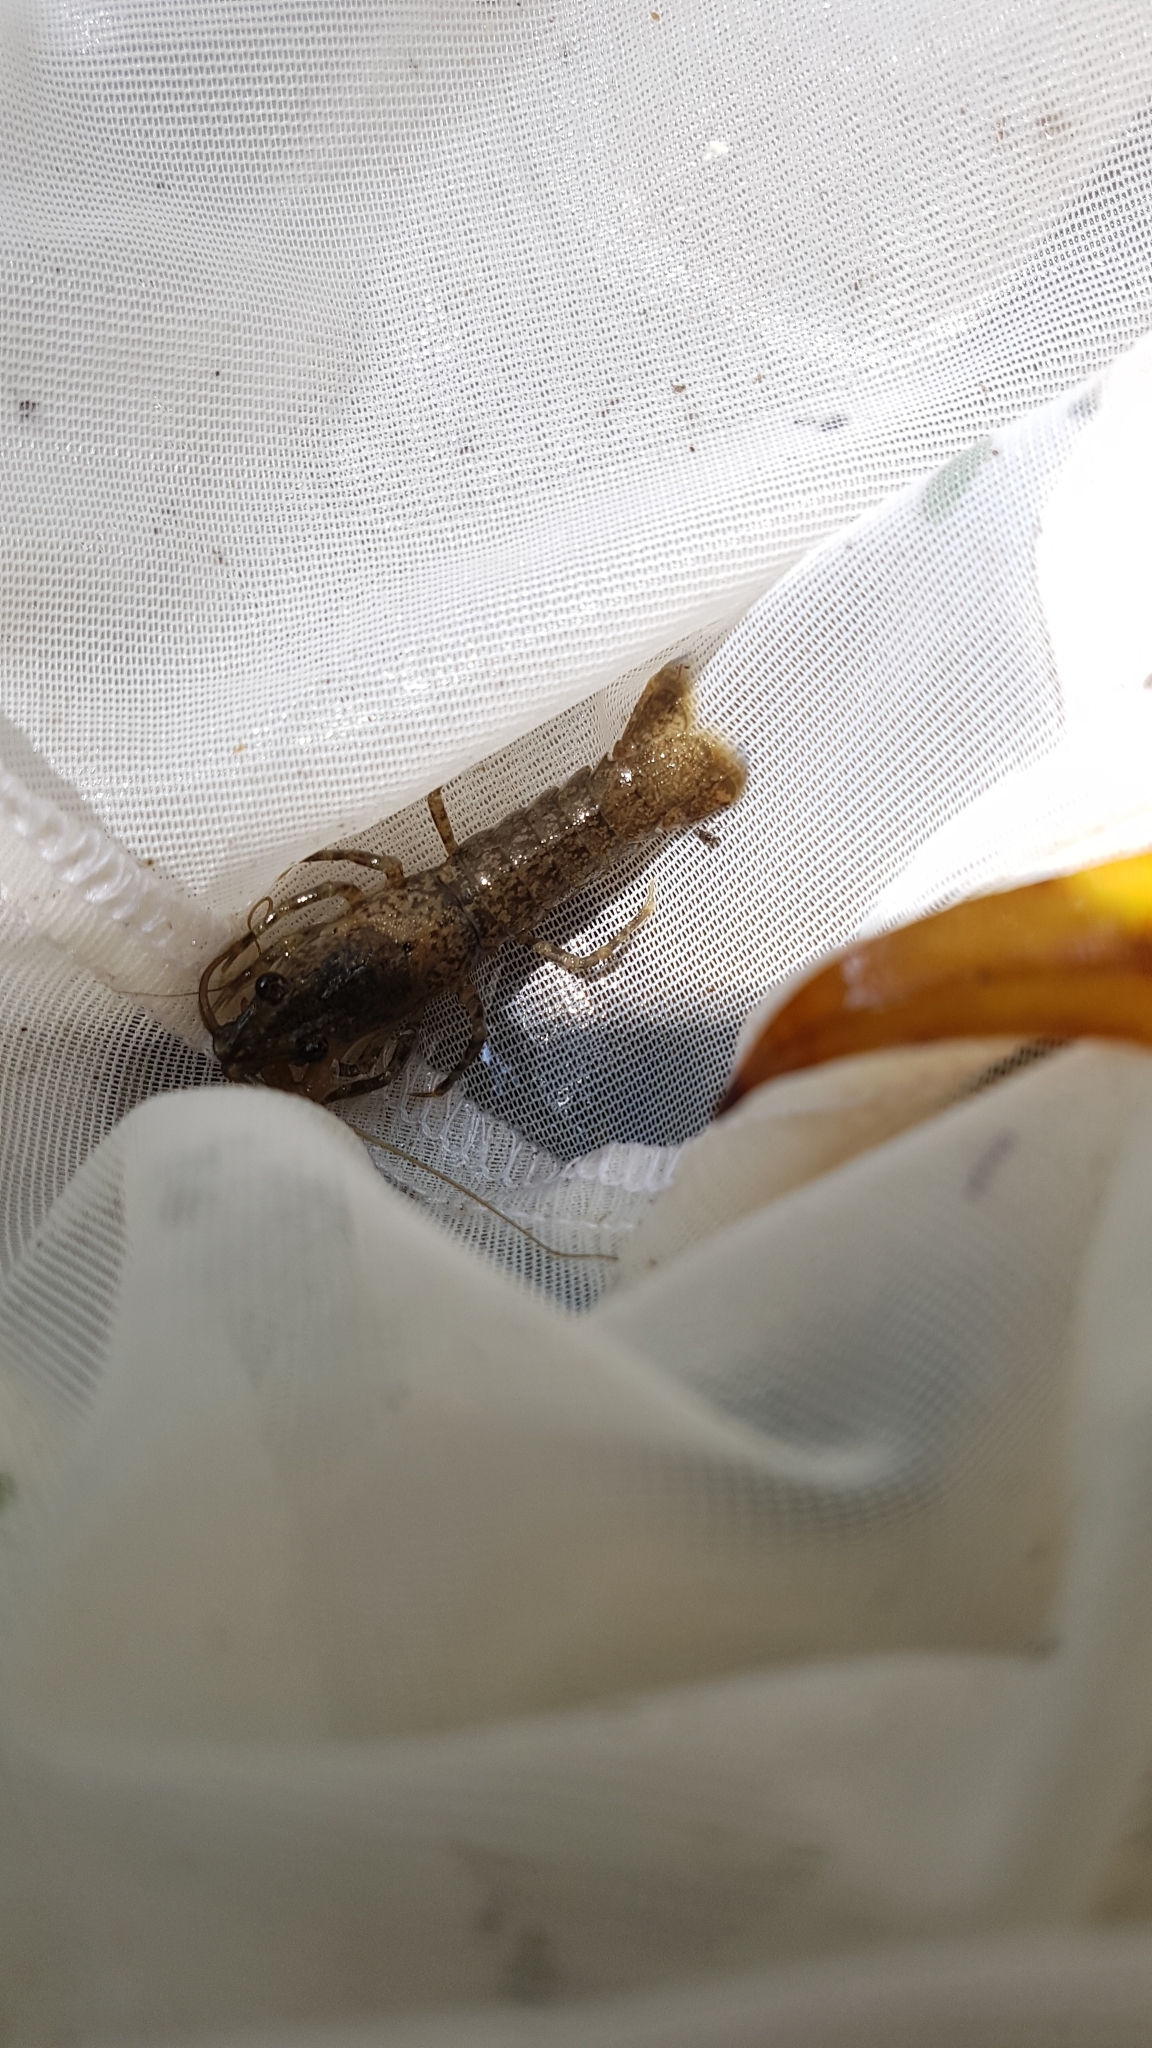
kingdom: Animalia
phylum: Arthropoda
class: Malacostraca
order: Decapoda
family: Parastacidae
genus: Paranephrops
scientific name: Paranephrops planifrons
